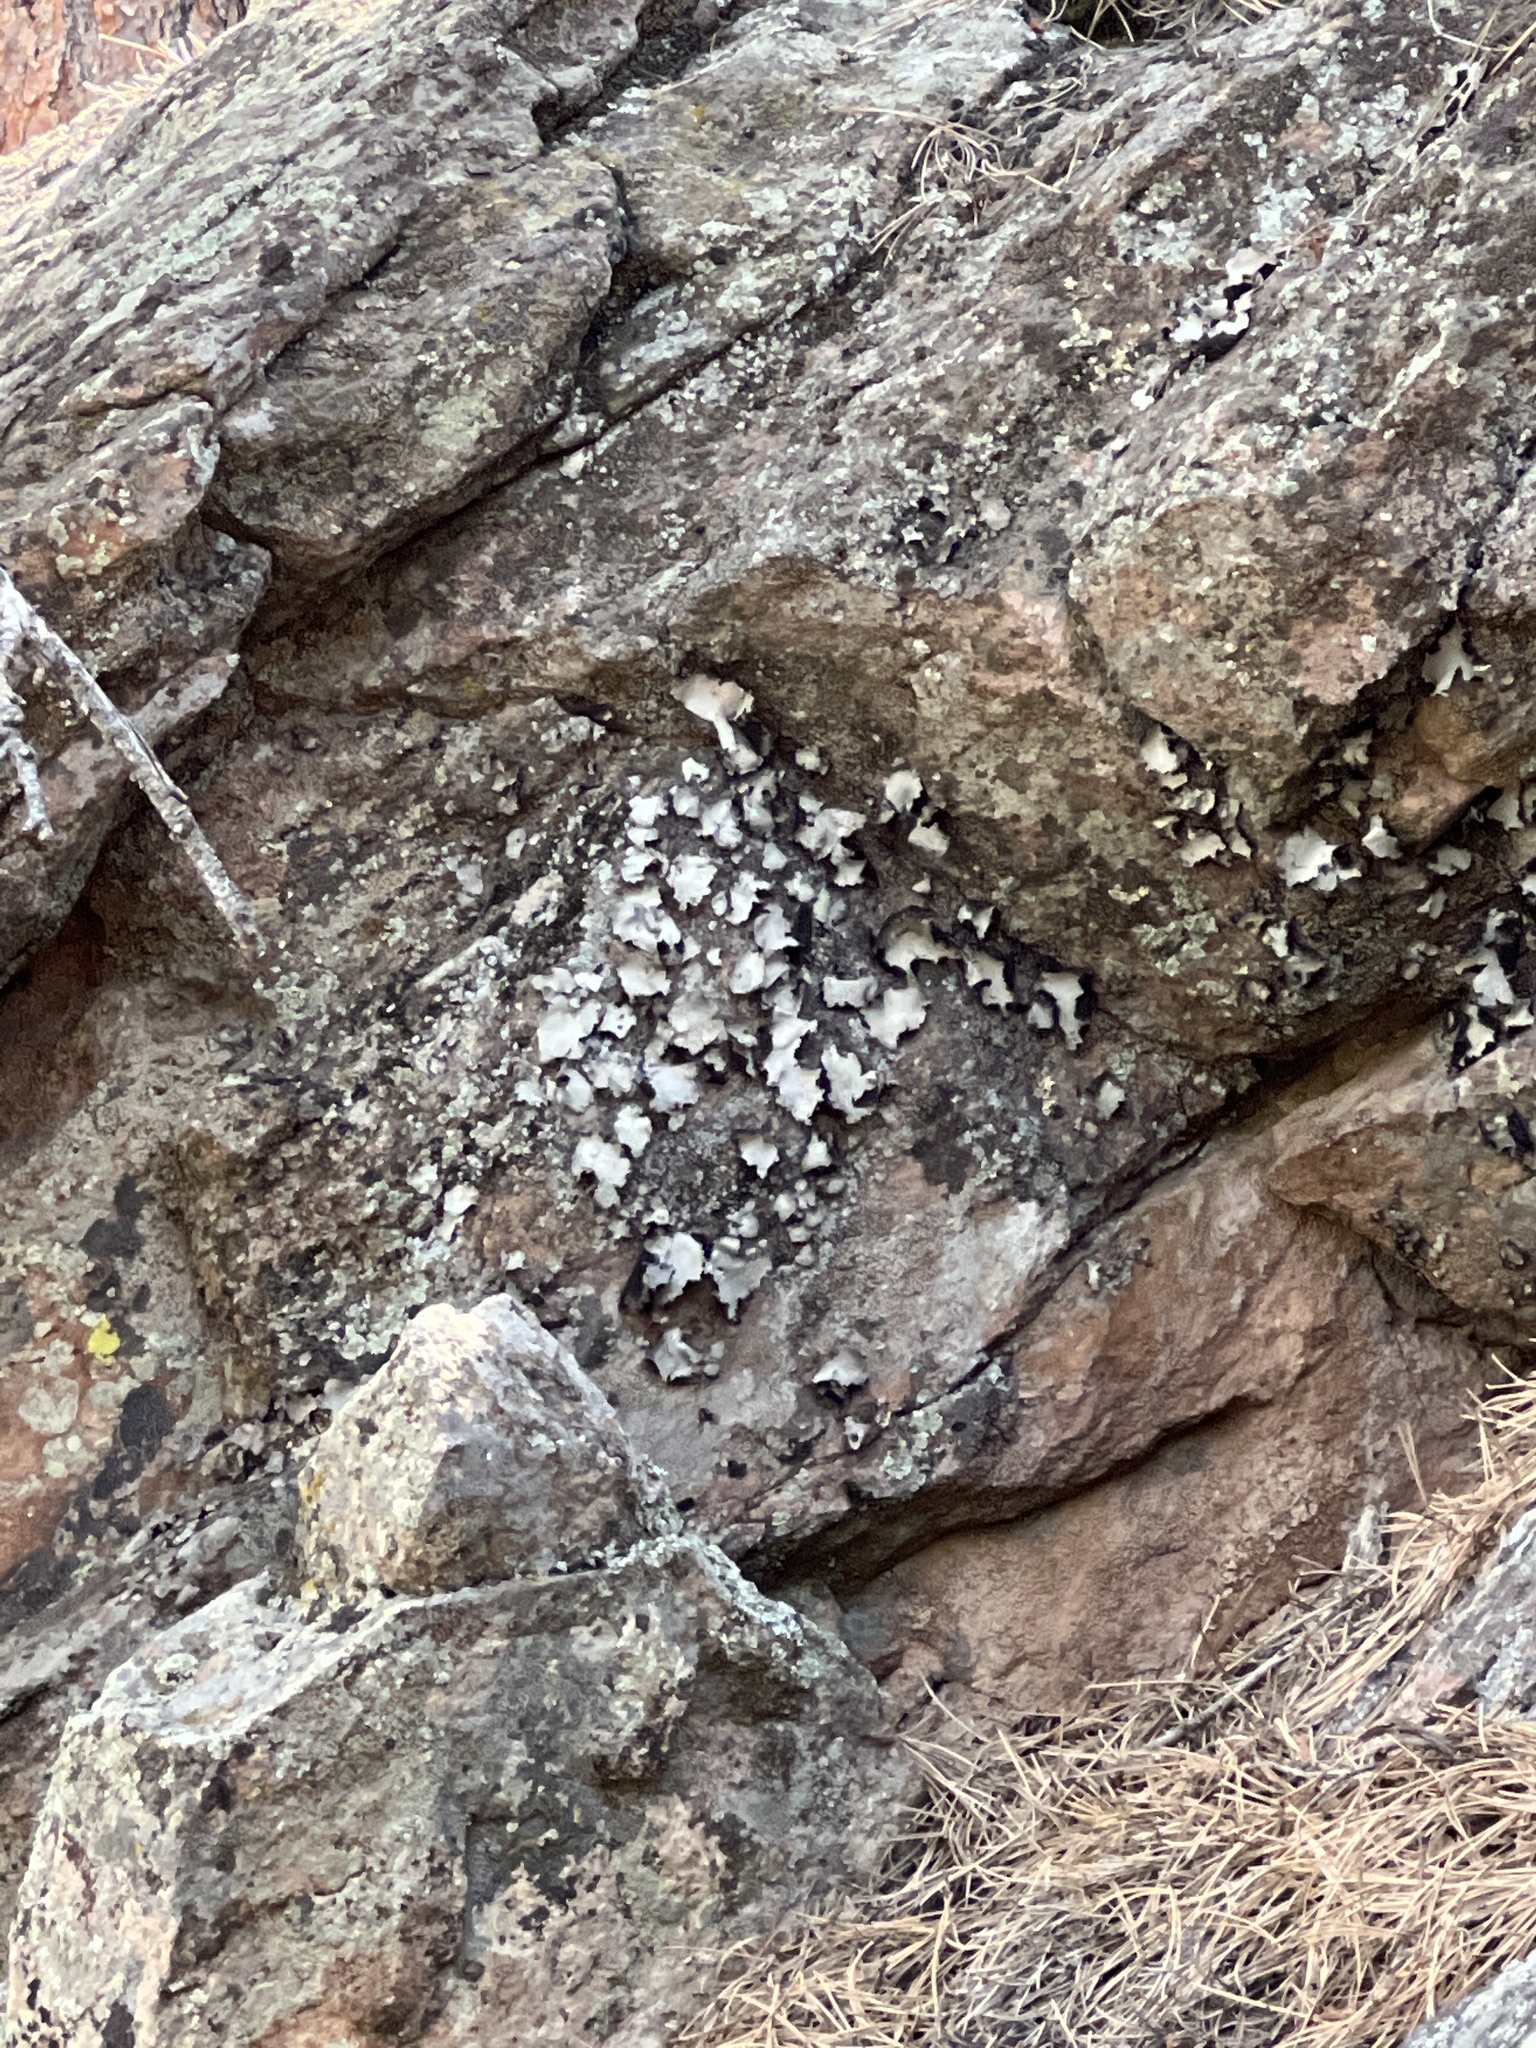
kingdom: Fungi
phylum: Ascomycota
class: Lecanoromycetes
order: Umbilicariales
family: Umbilicariaceae
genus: Umbilicaria
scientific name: Umbilicaria americana
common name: Frosted rock tripe
